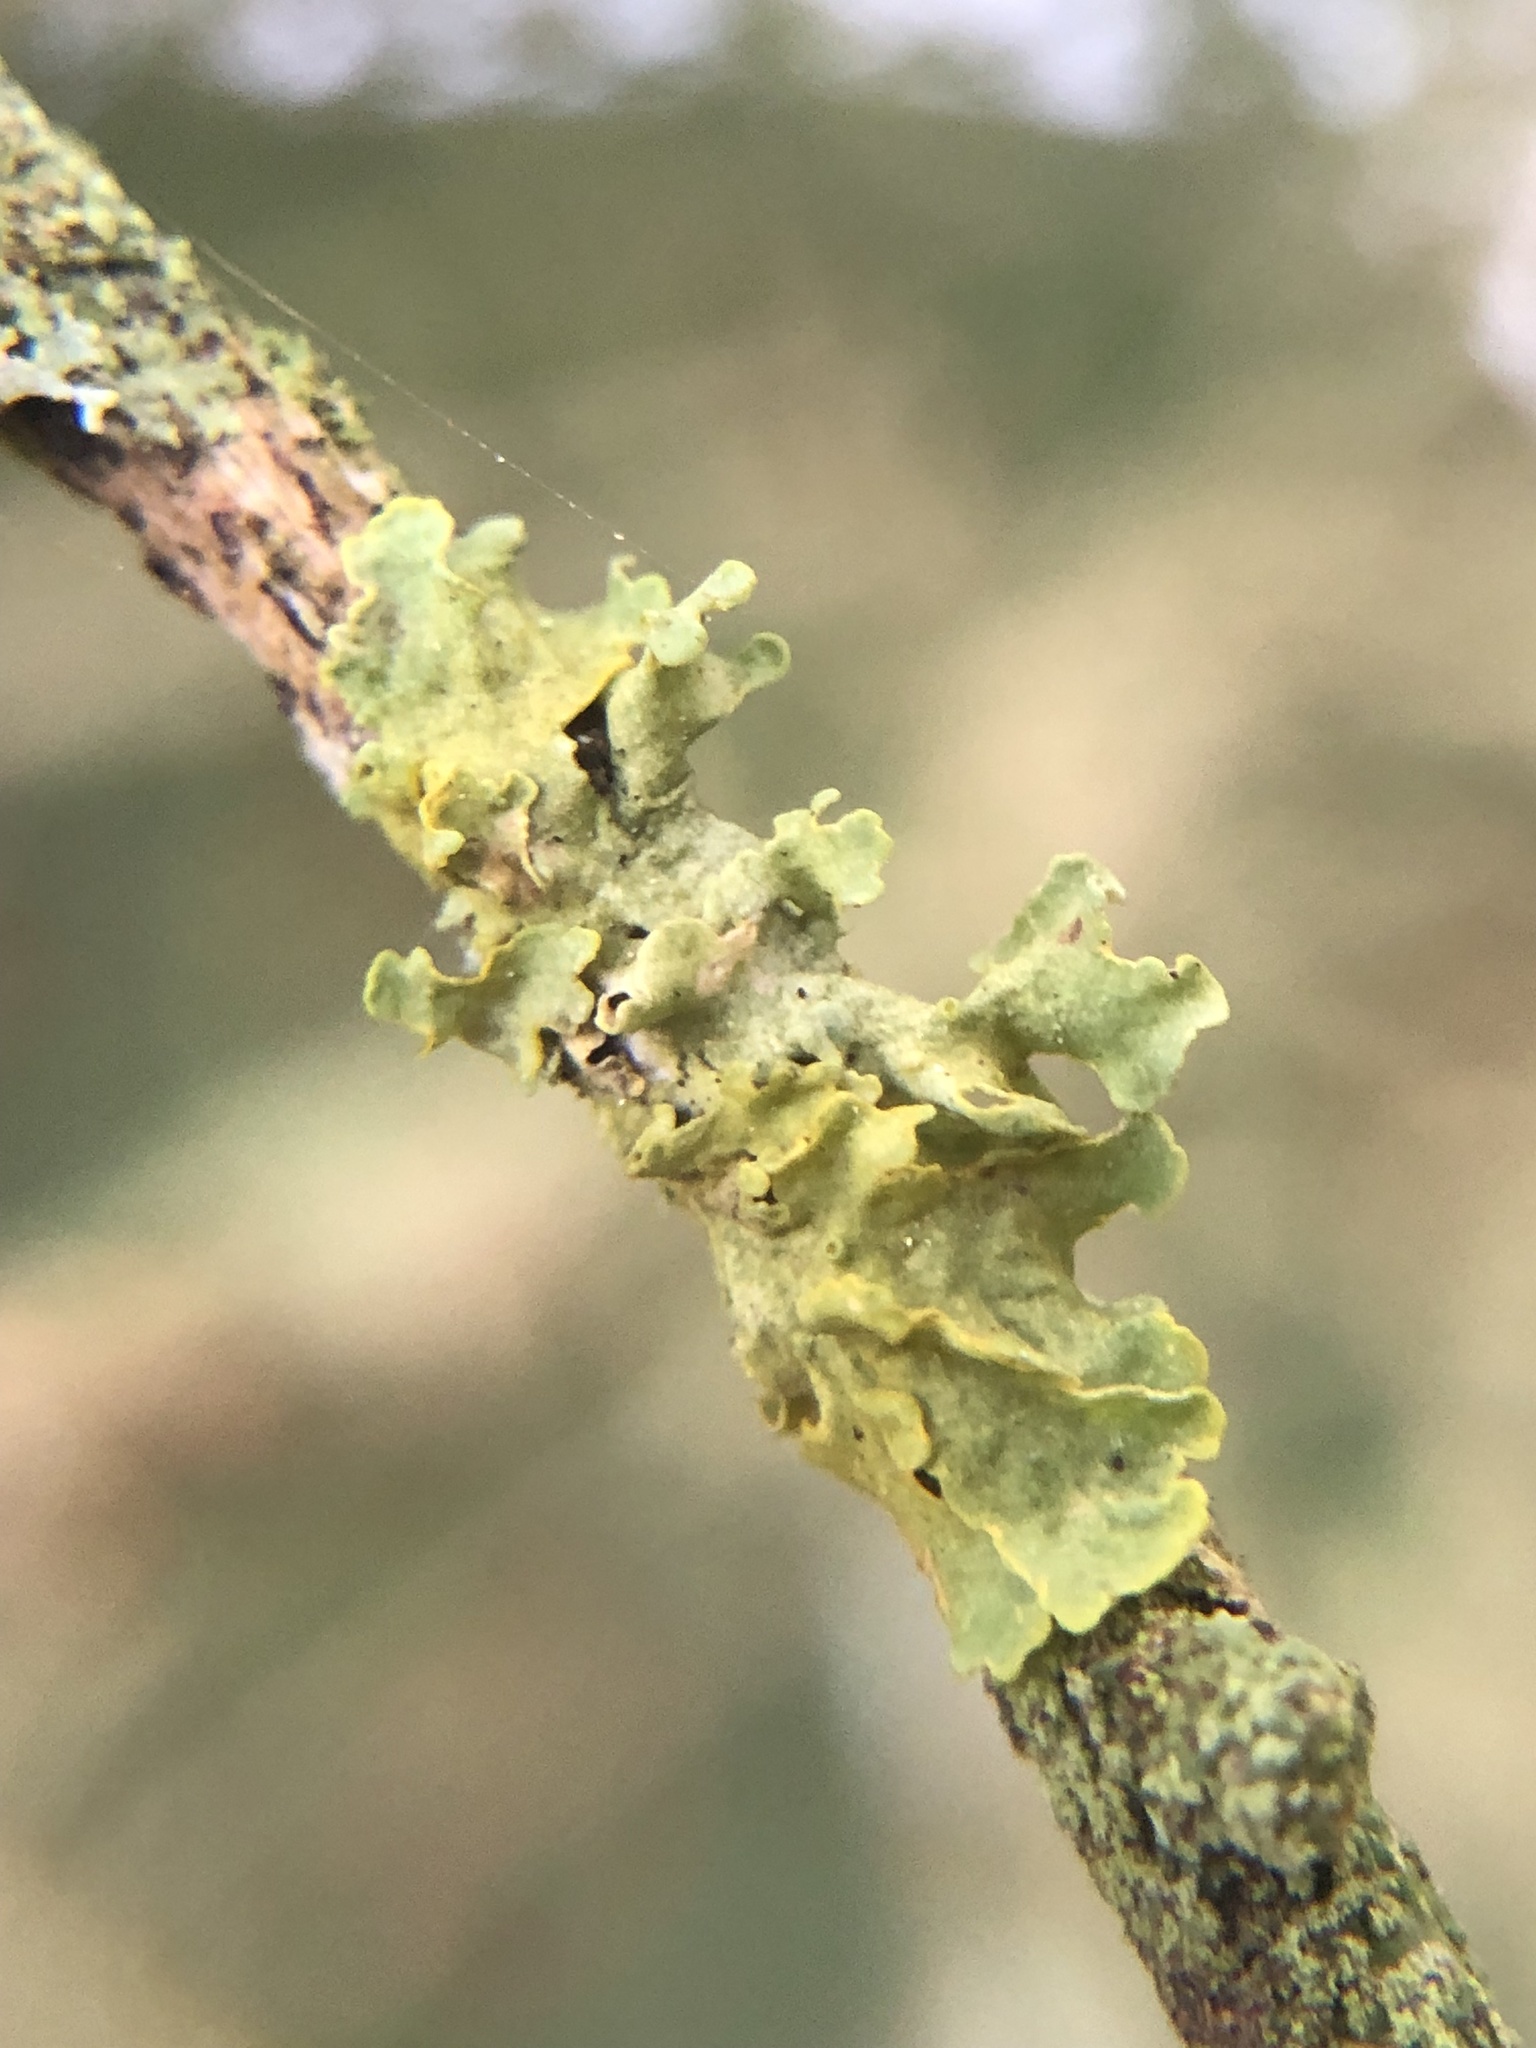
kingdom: Fungi
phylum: Ascomycota
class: Lecanoromycetes
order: Teloschistales
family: Teloschistaceae
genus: Xanthoria
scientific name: Xanthoria parietina
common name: Common orange lichen
